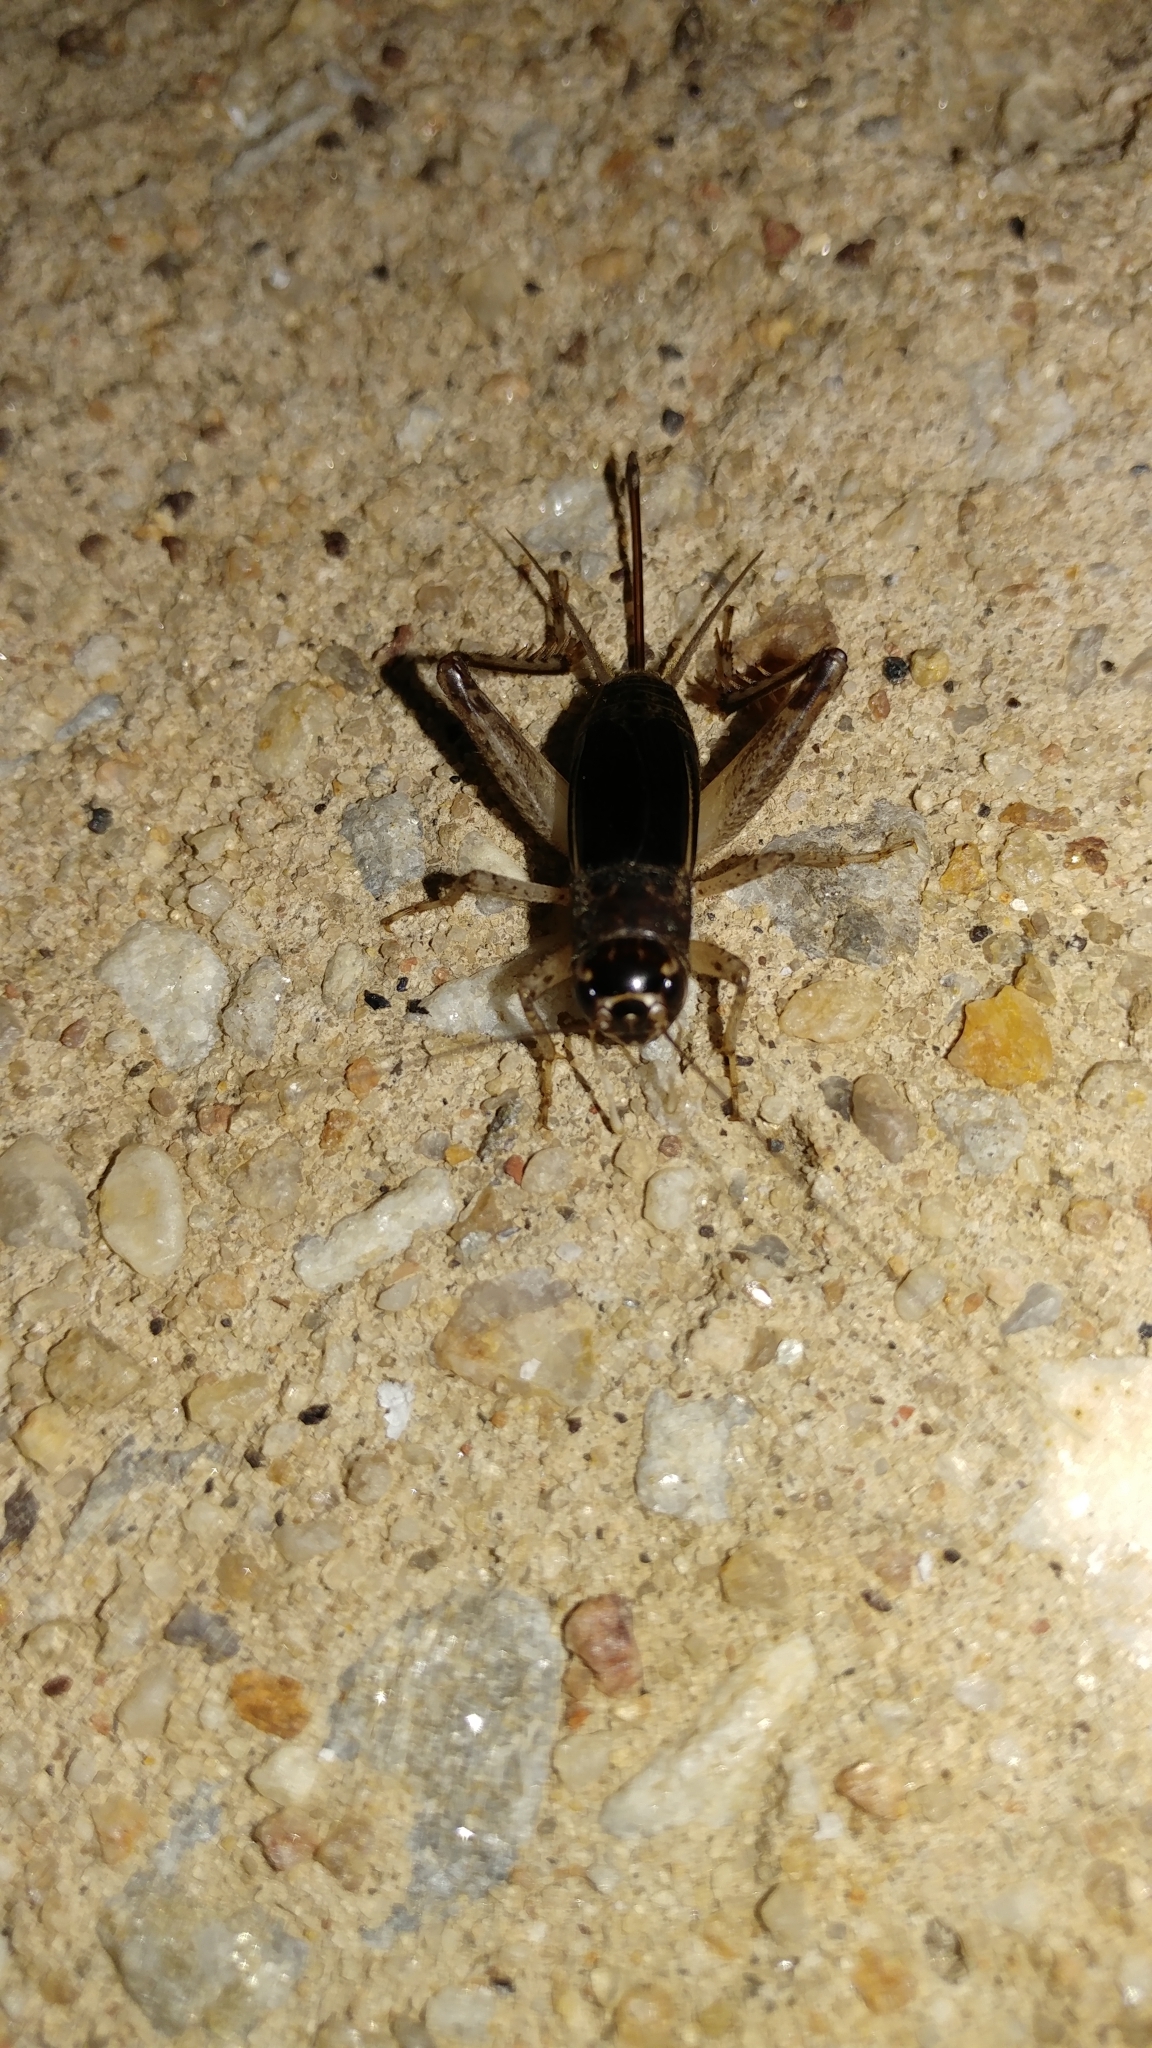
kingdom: Animalia
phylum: Arthropoda
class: Insecta
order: Orthoptera
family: Gryllidae
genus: Velarifictorus
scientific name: Velarifictorus micado
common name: Japanese burrowing cricket
